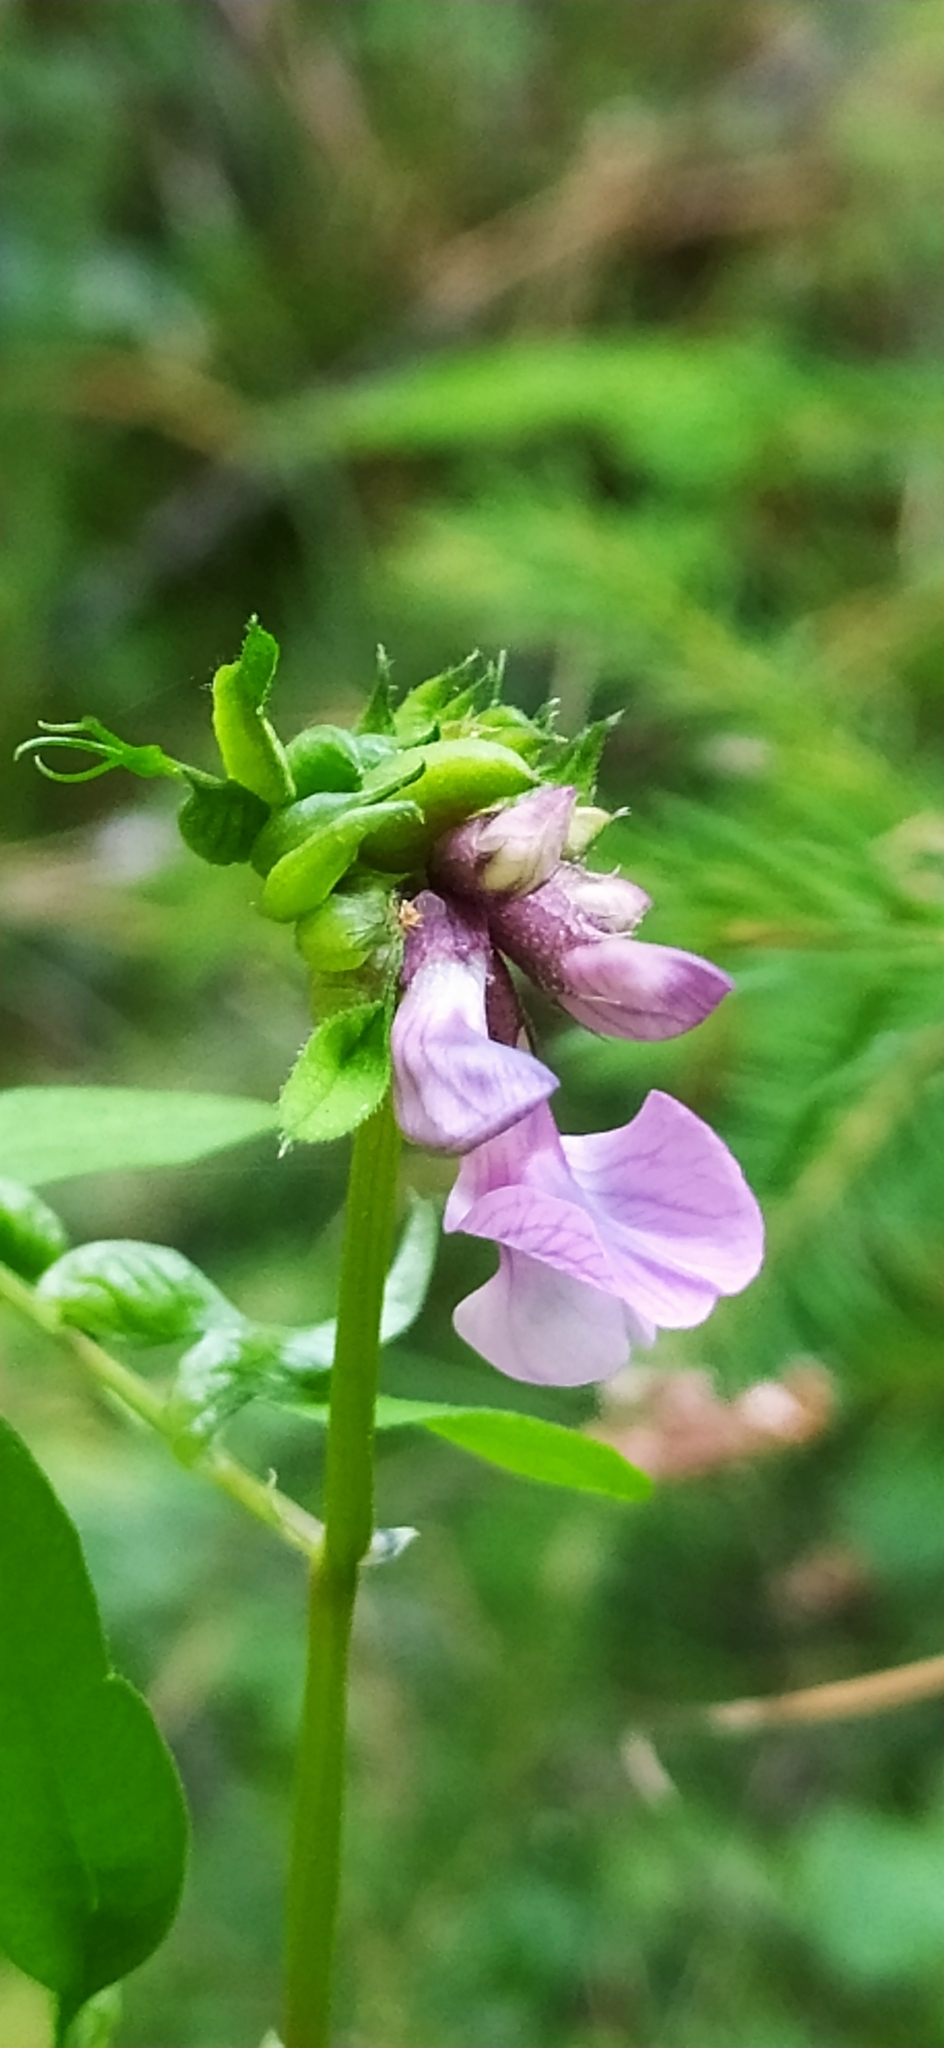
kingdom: Plantae
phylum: Tracheophyta
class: Magnoliopsida
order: Fabales
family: Fabaceae
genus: Vicia
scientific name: Vicia sepium
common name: Bush vetch
